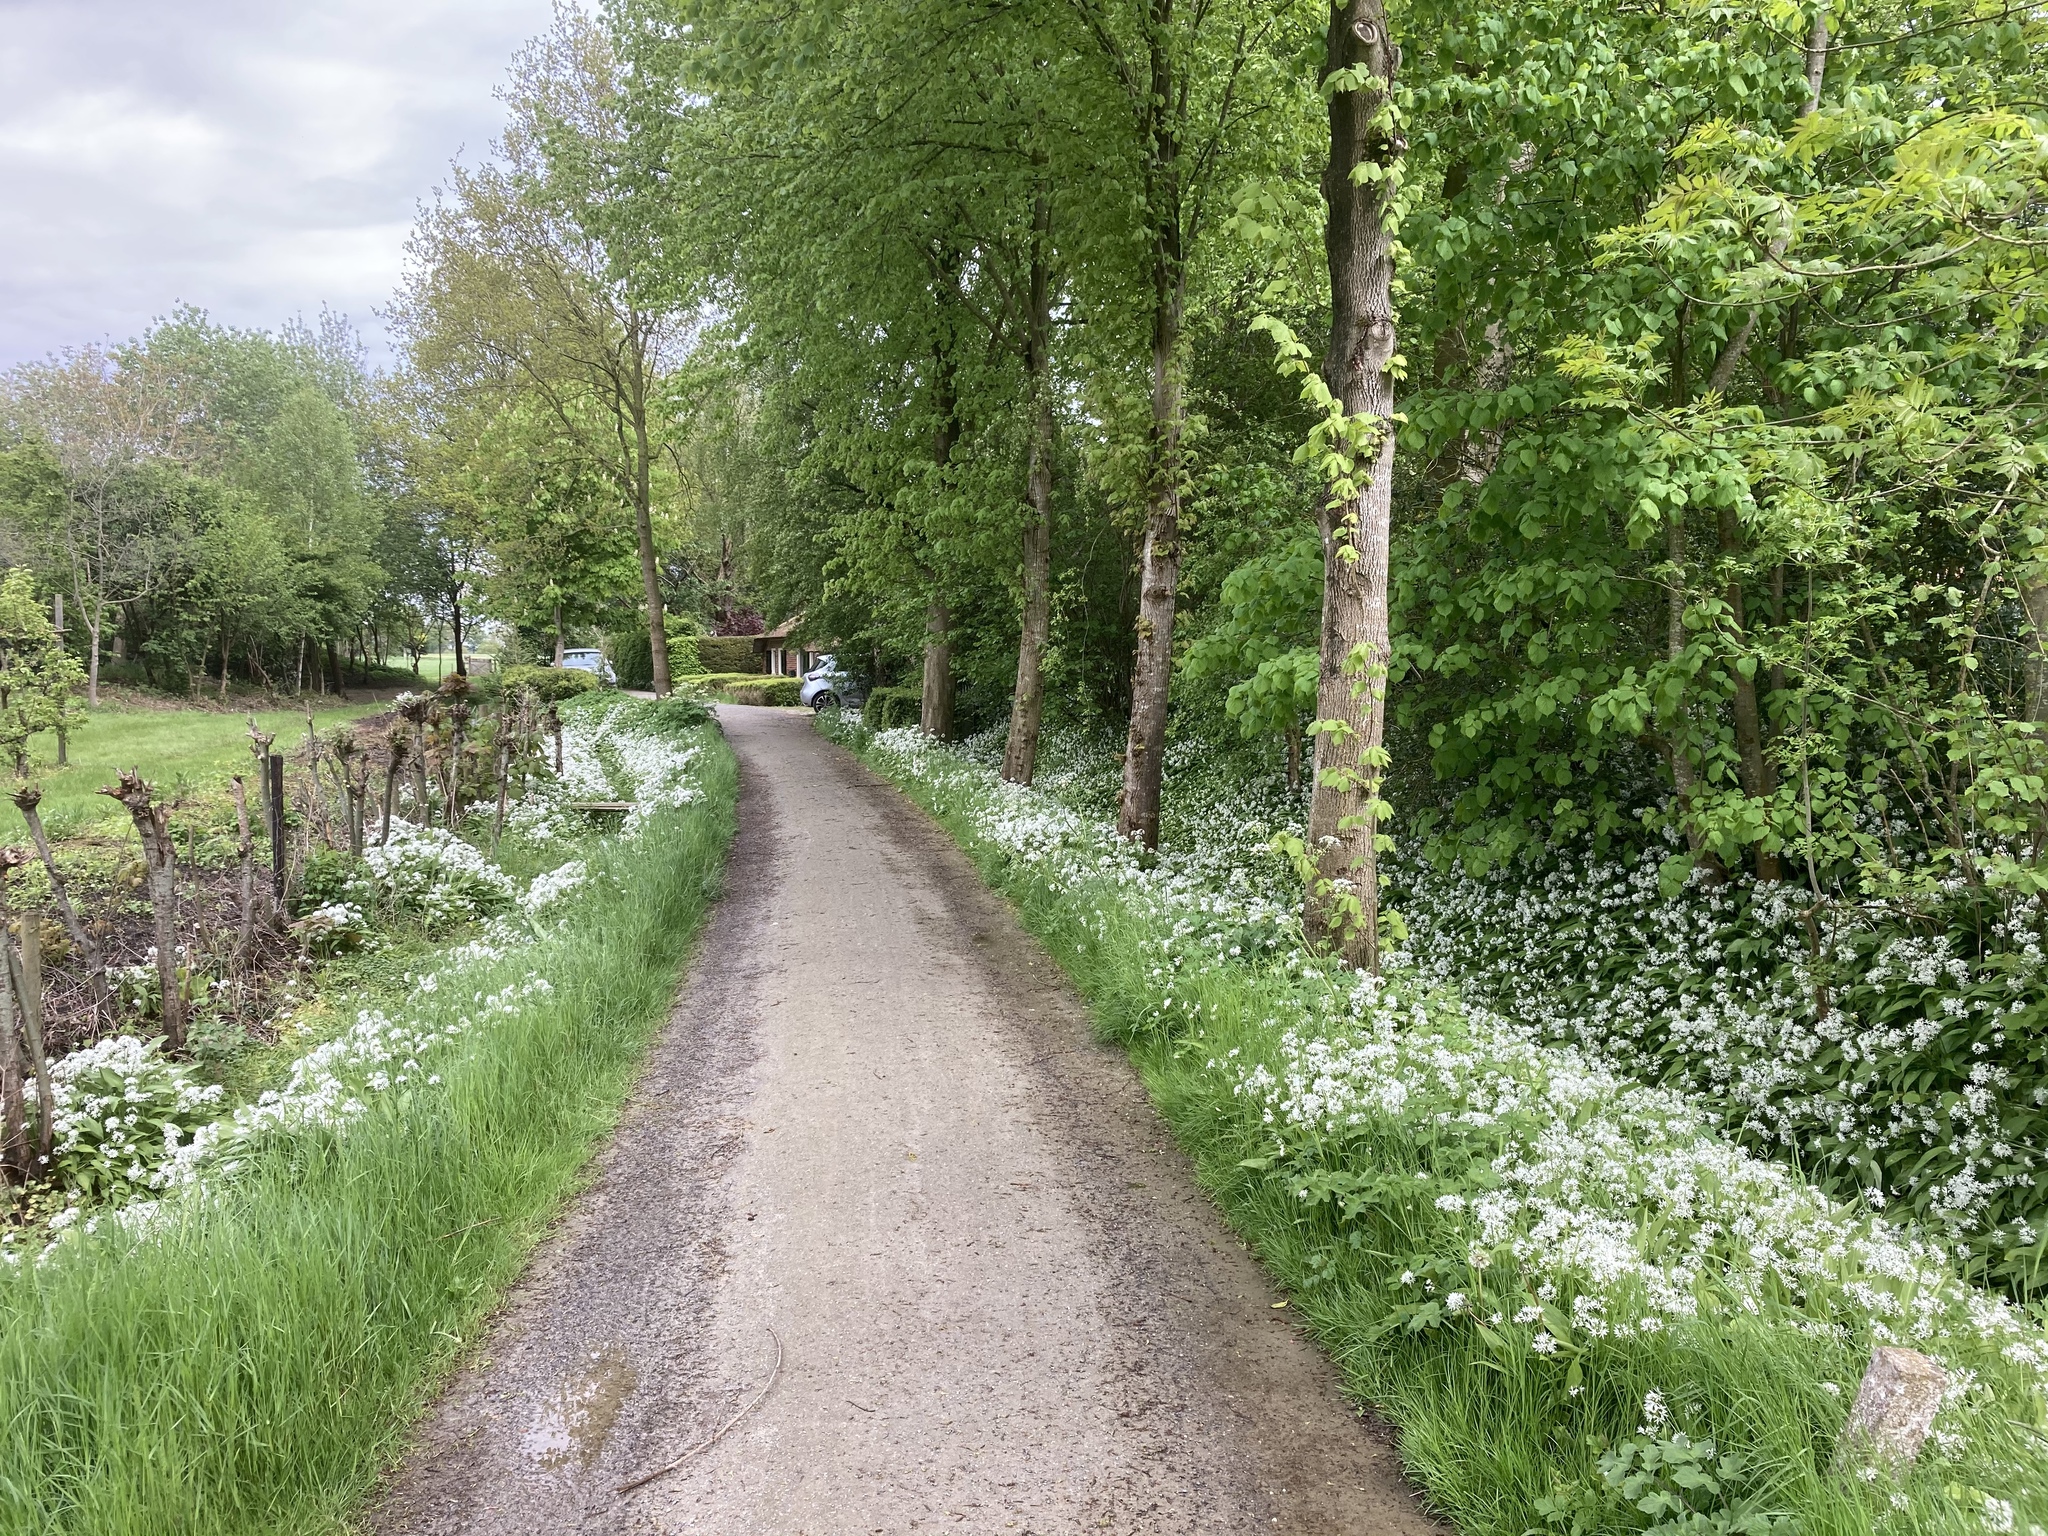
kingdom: Plantae
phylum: Tracheophyta
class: Liliopsida
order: Asparagales
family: Amaryllidaceae
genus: Allium
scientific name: Allium ursinum
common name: Ramsons
